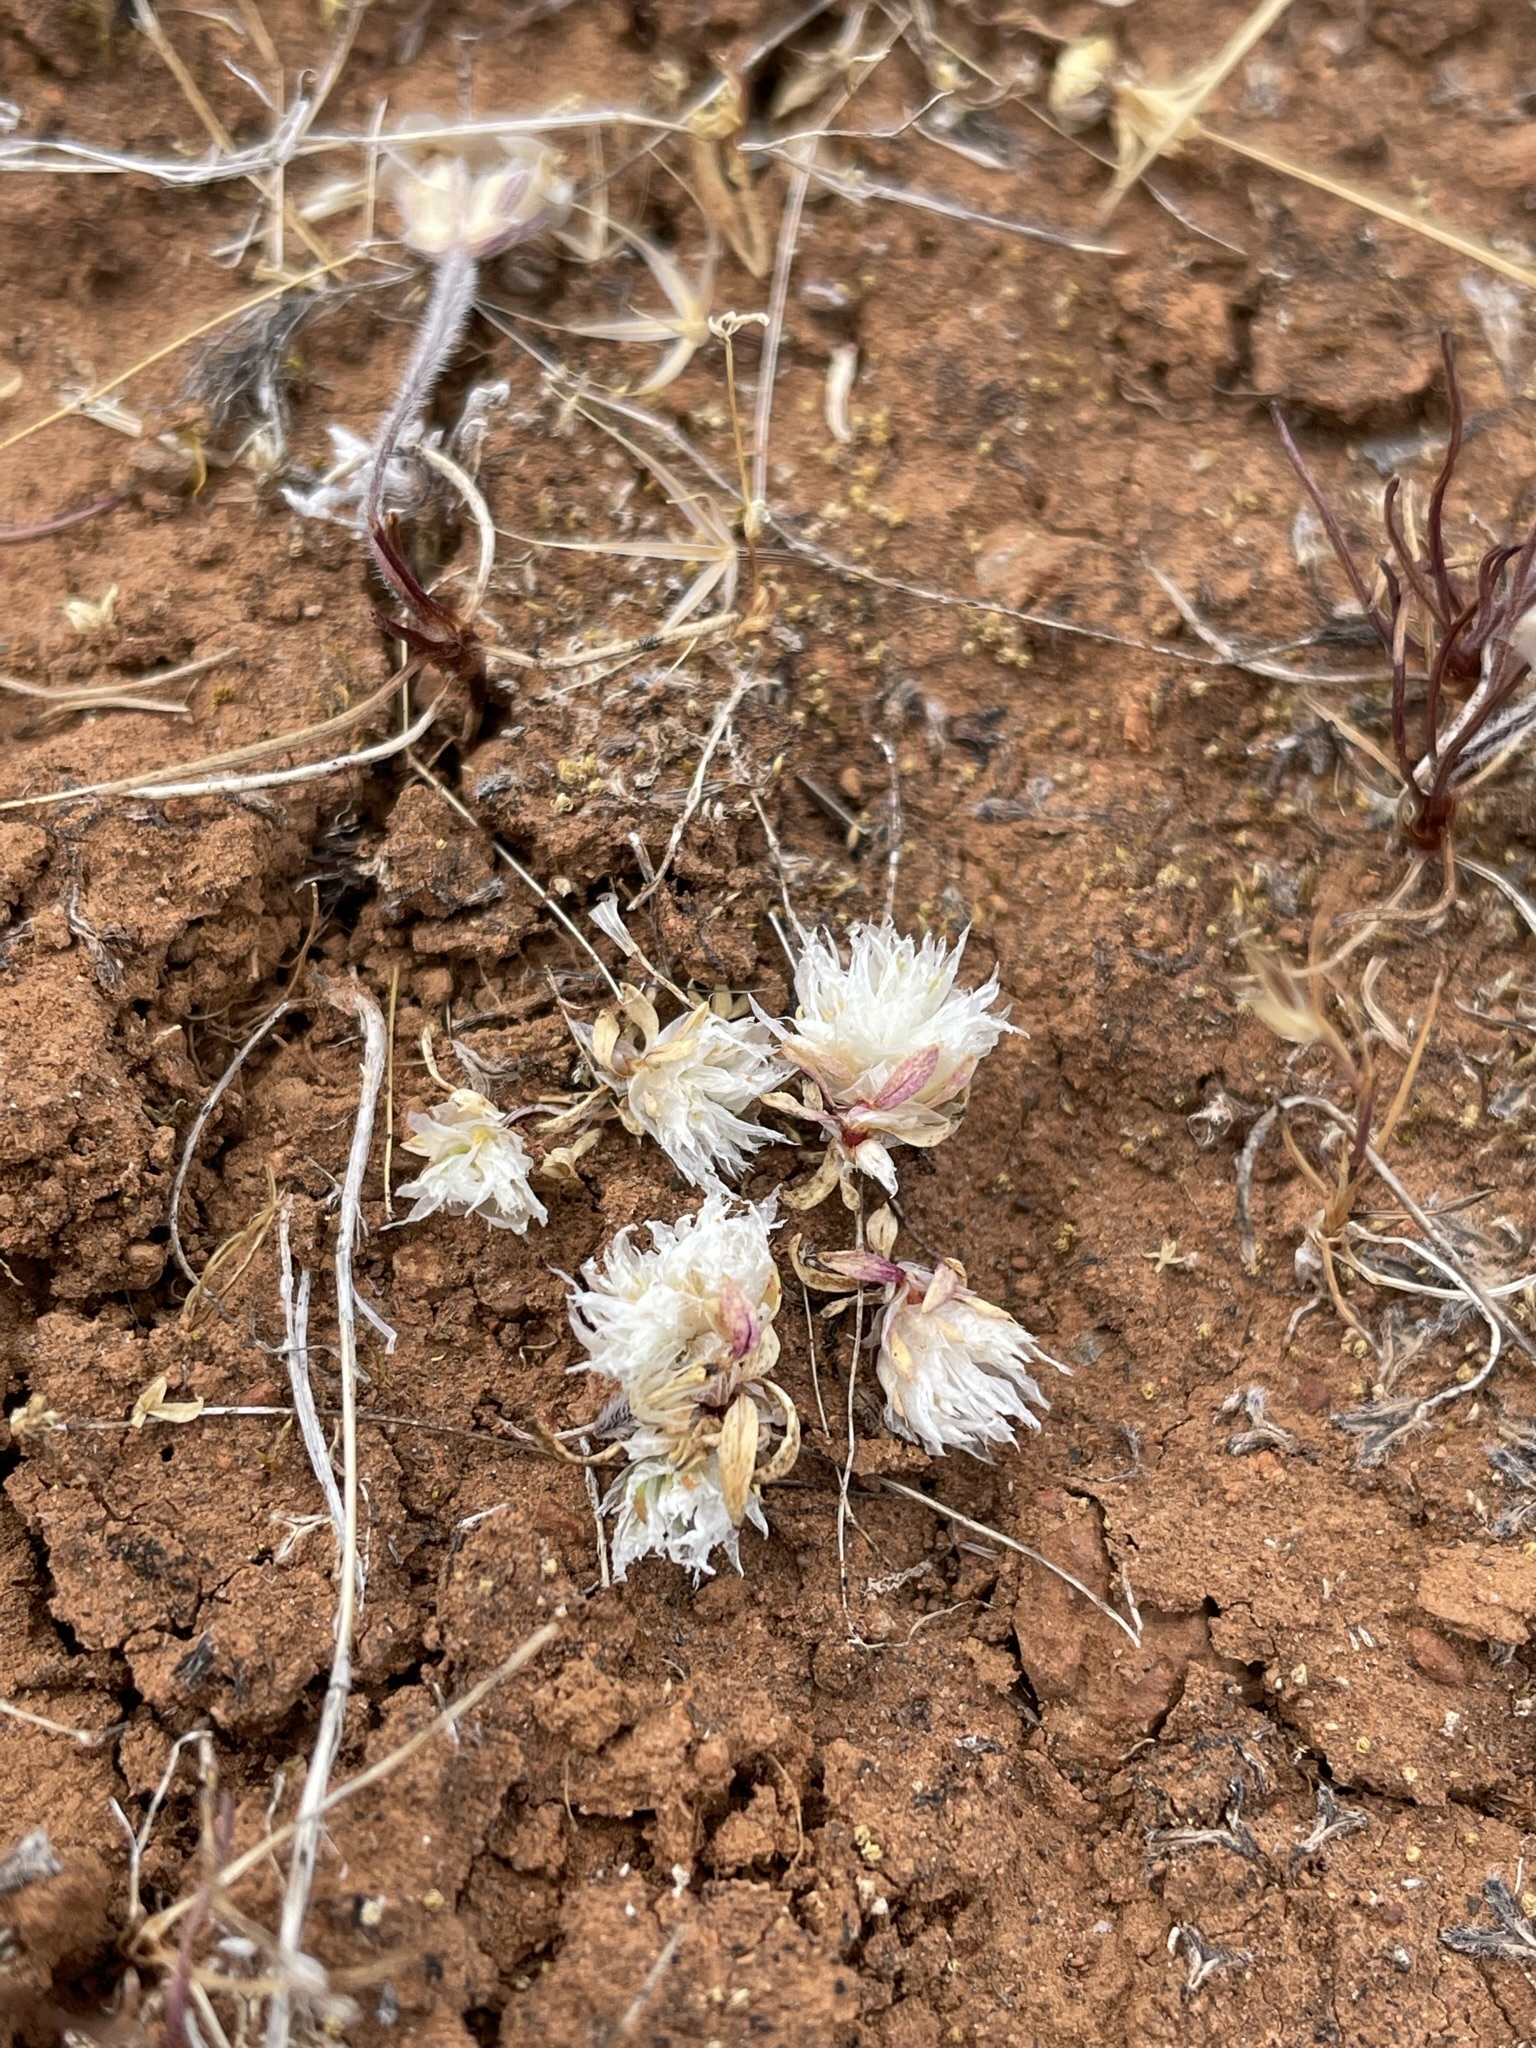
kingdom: Plantae
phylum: Tracheophyta
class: Magnoliopsida
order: Caryophyllales
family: Caryophyllaceae
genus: Paronychia
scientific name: Paronychia ahartii
